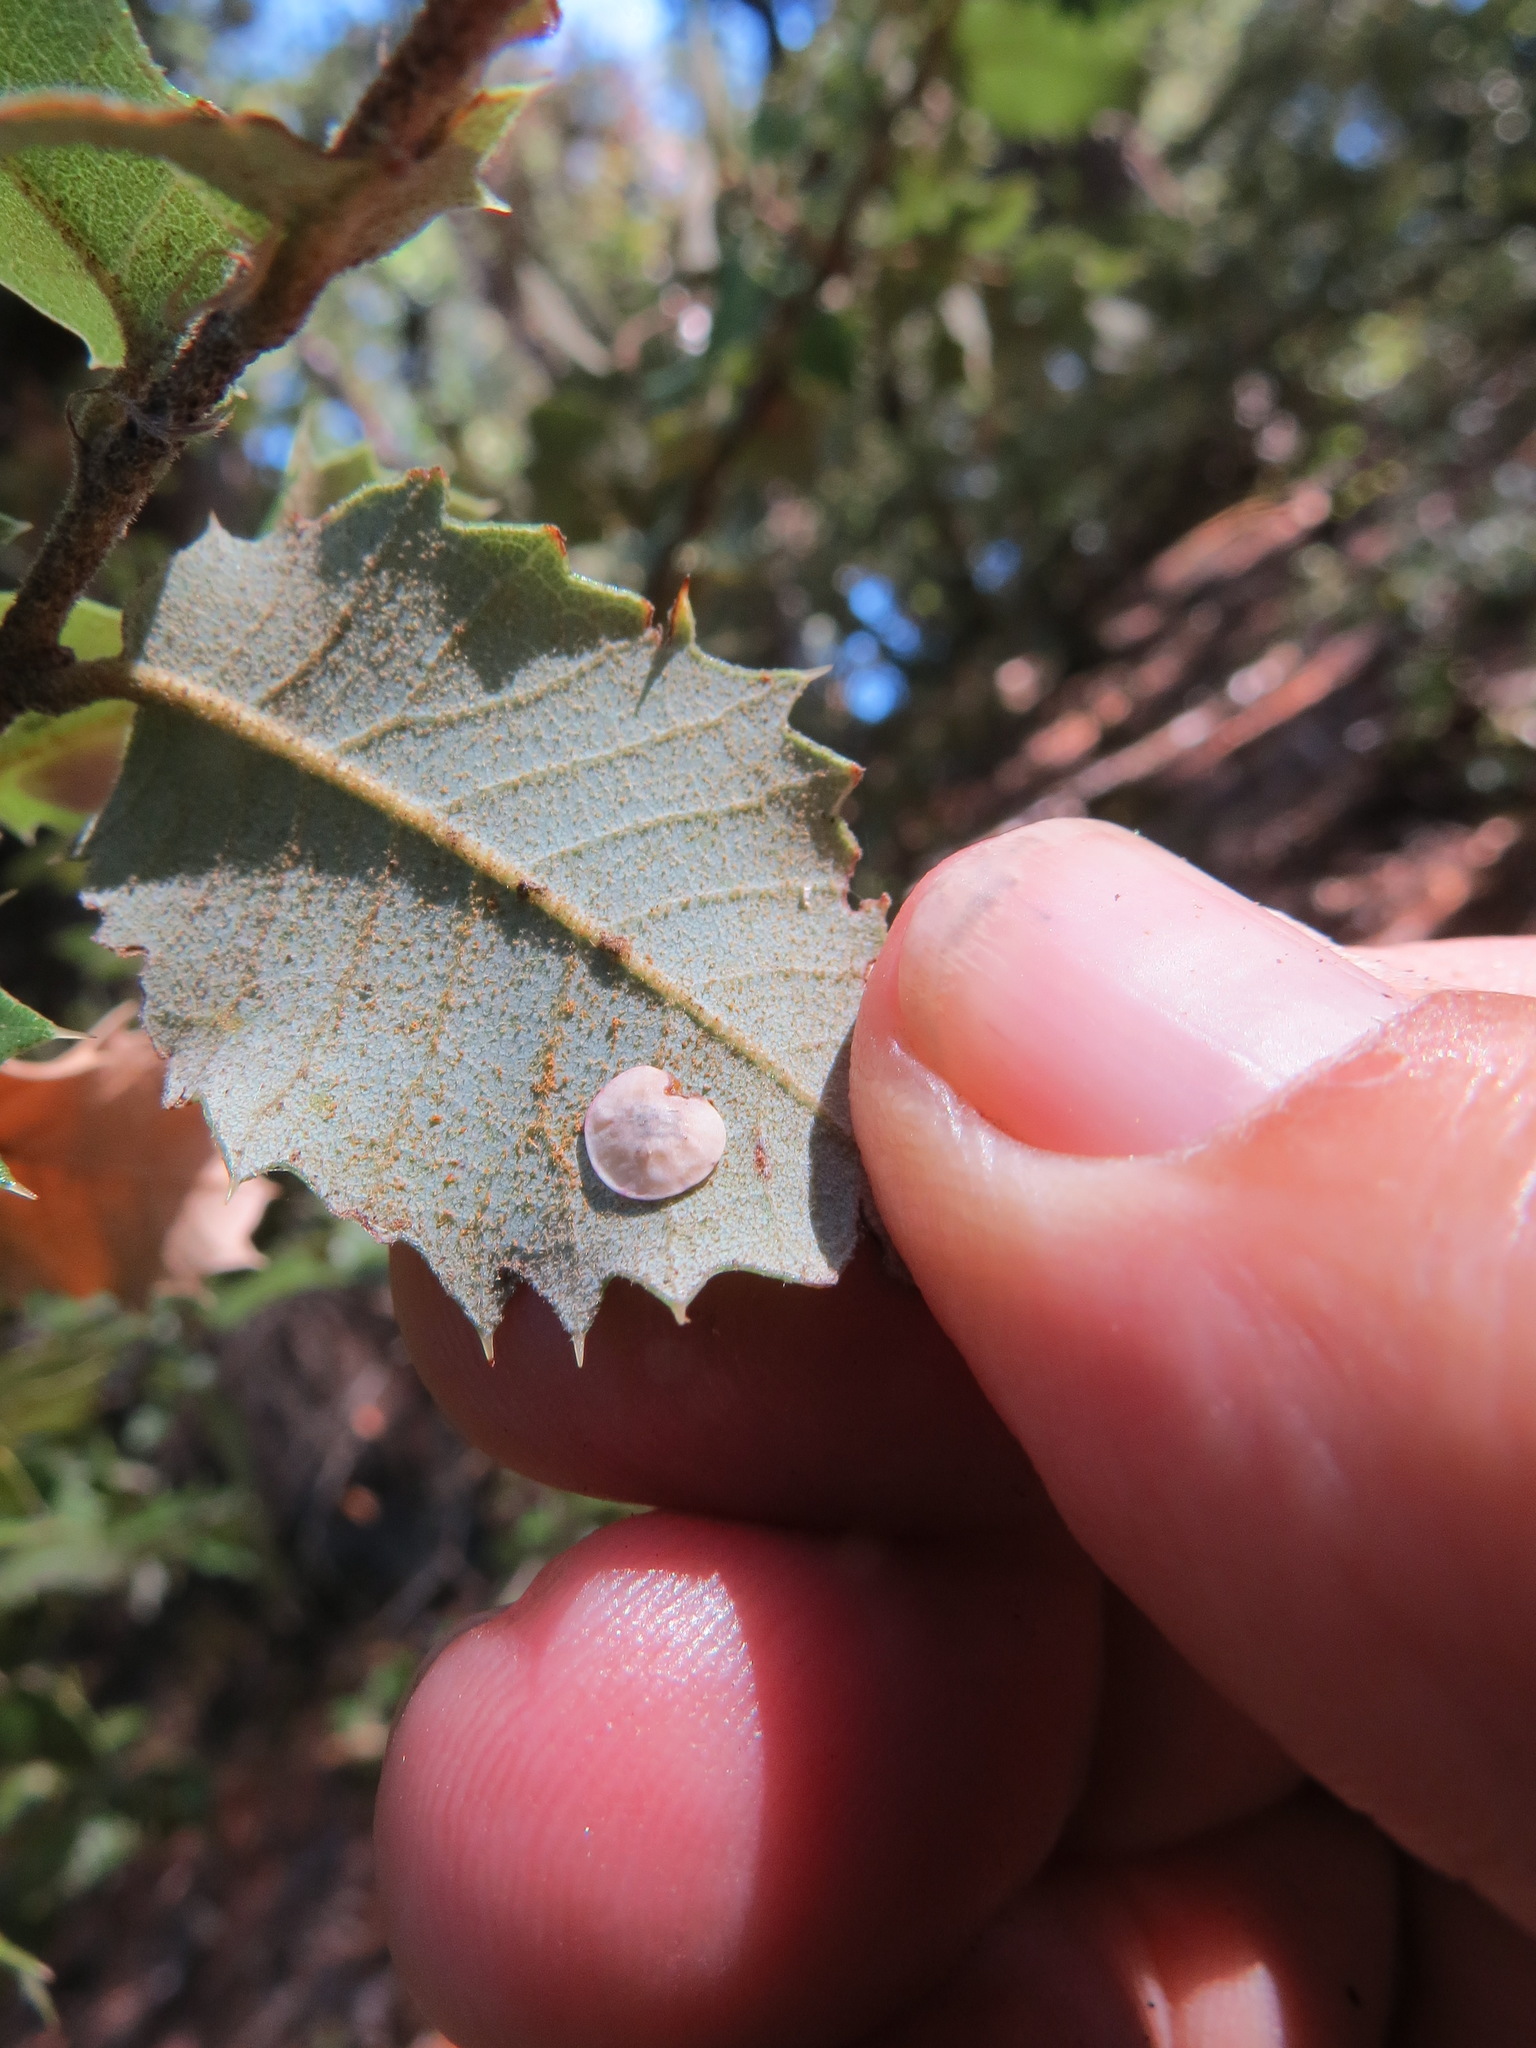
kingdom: Animalia
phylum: Arthropoda
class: Insecta
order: Hymenoptera
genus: Paracraspis
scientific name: Paracraspis
